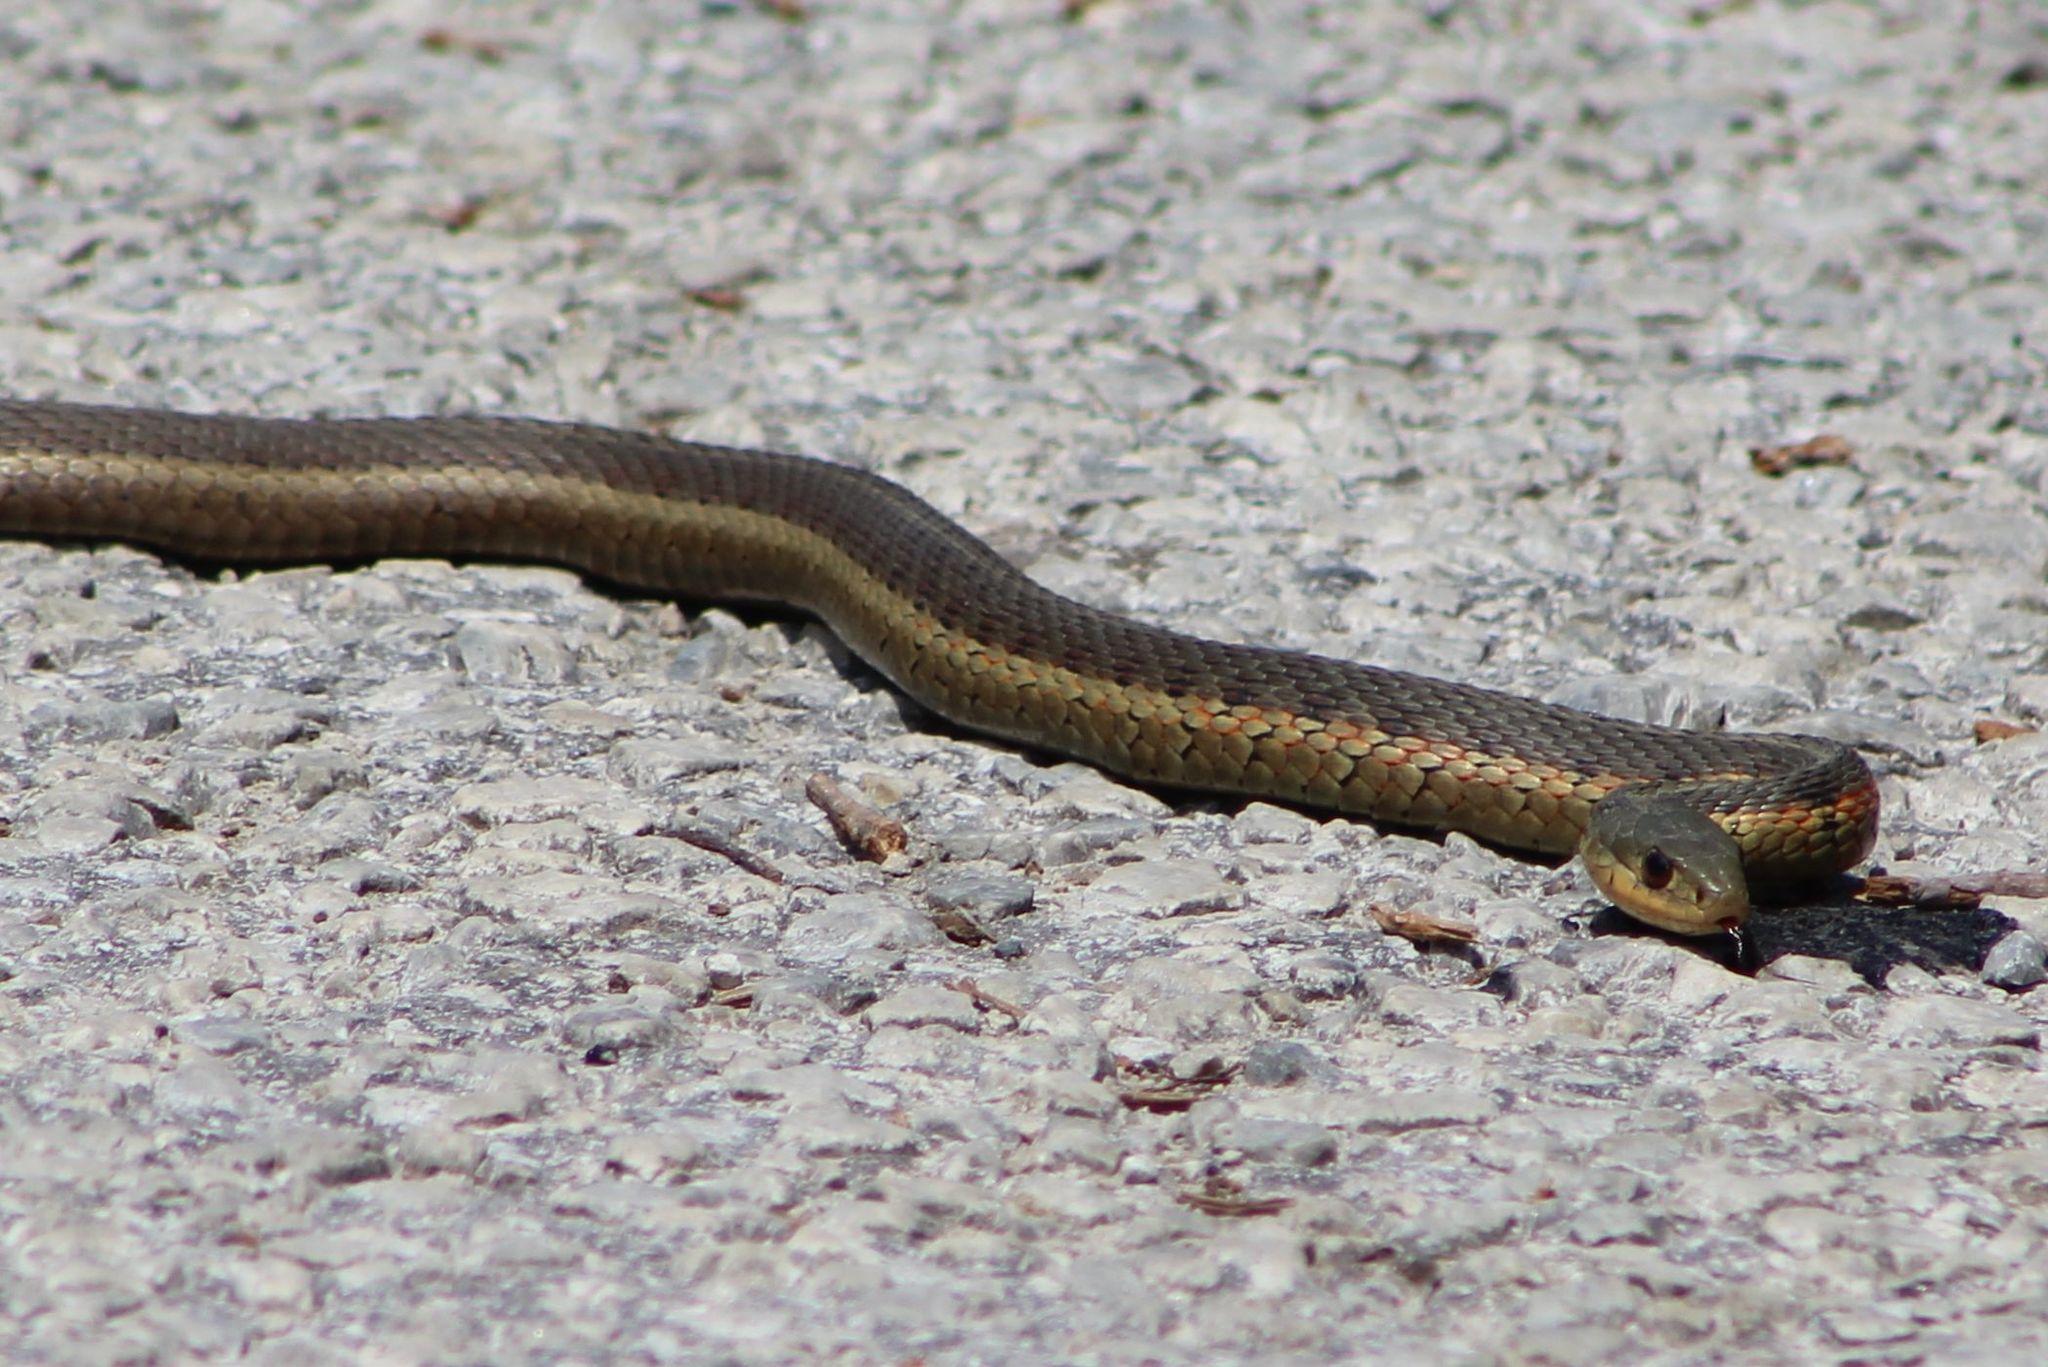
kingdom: Animalia
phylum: Chordata
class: Squamata
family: Colubridae
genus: Thamnophis
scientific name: Thamnophis sirtalis
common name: Common garter snake
